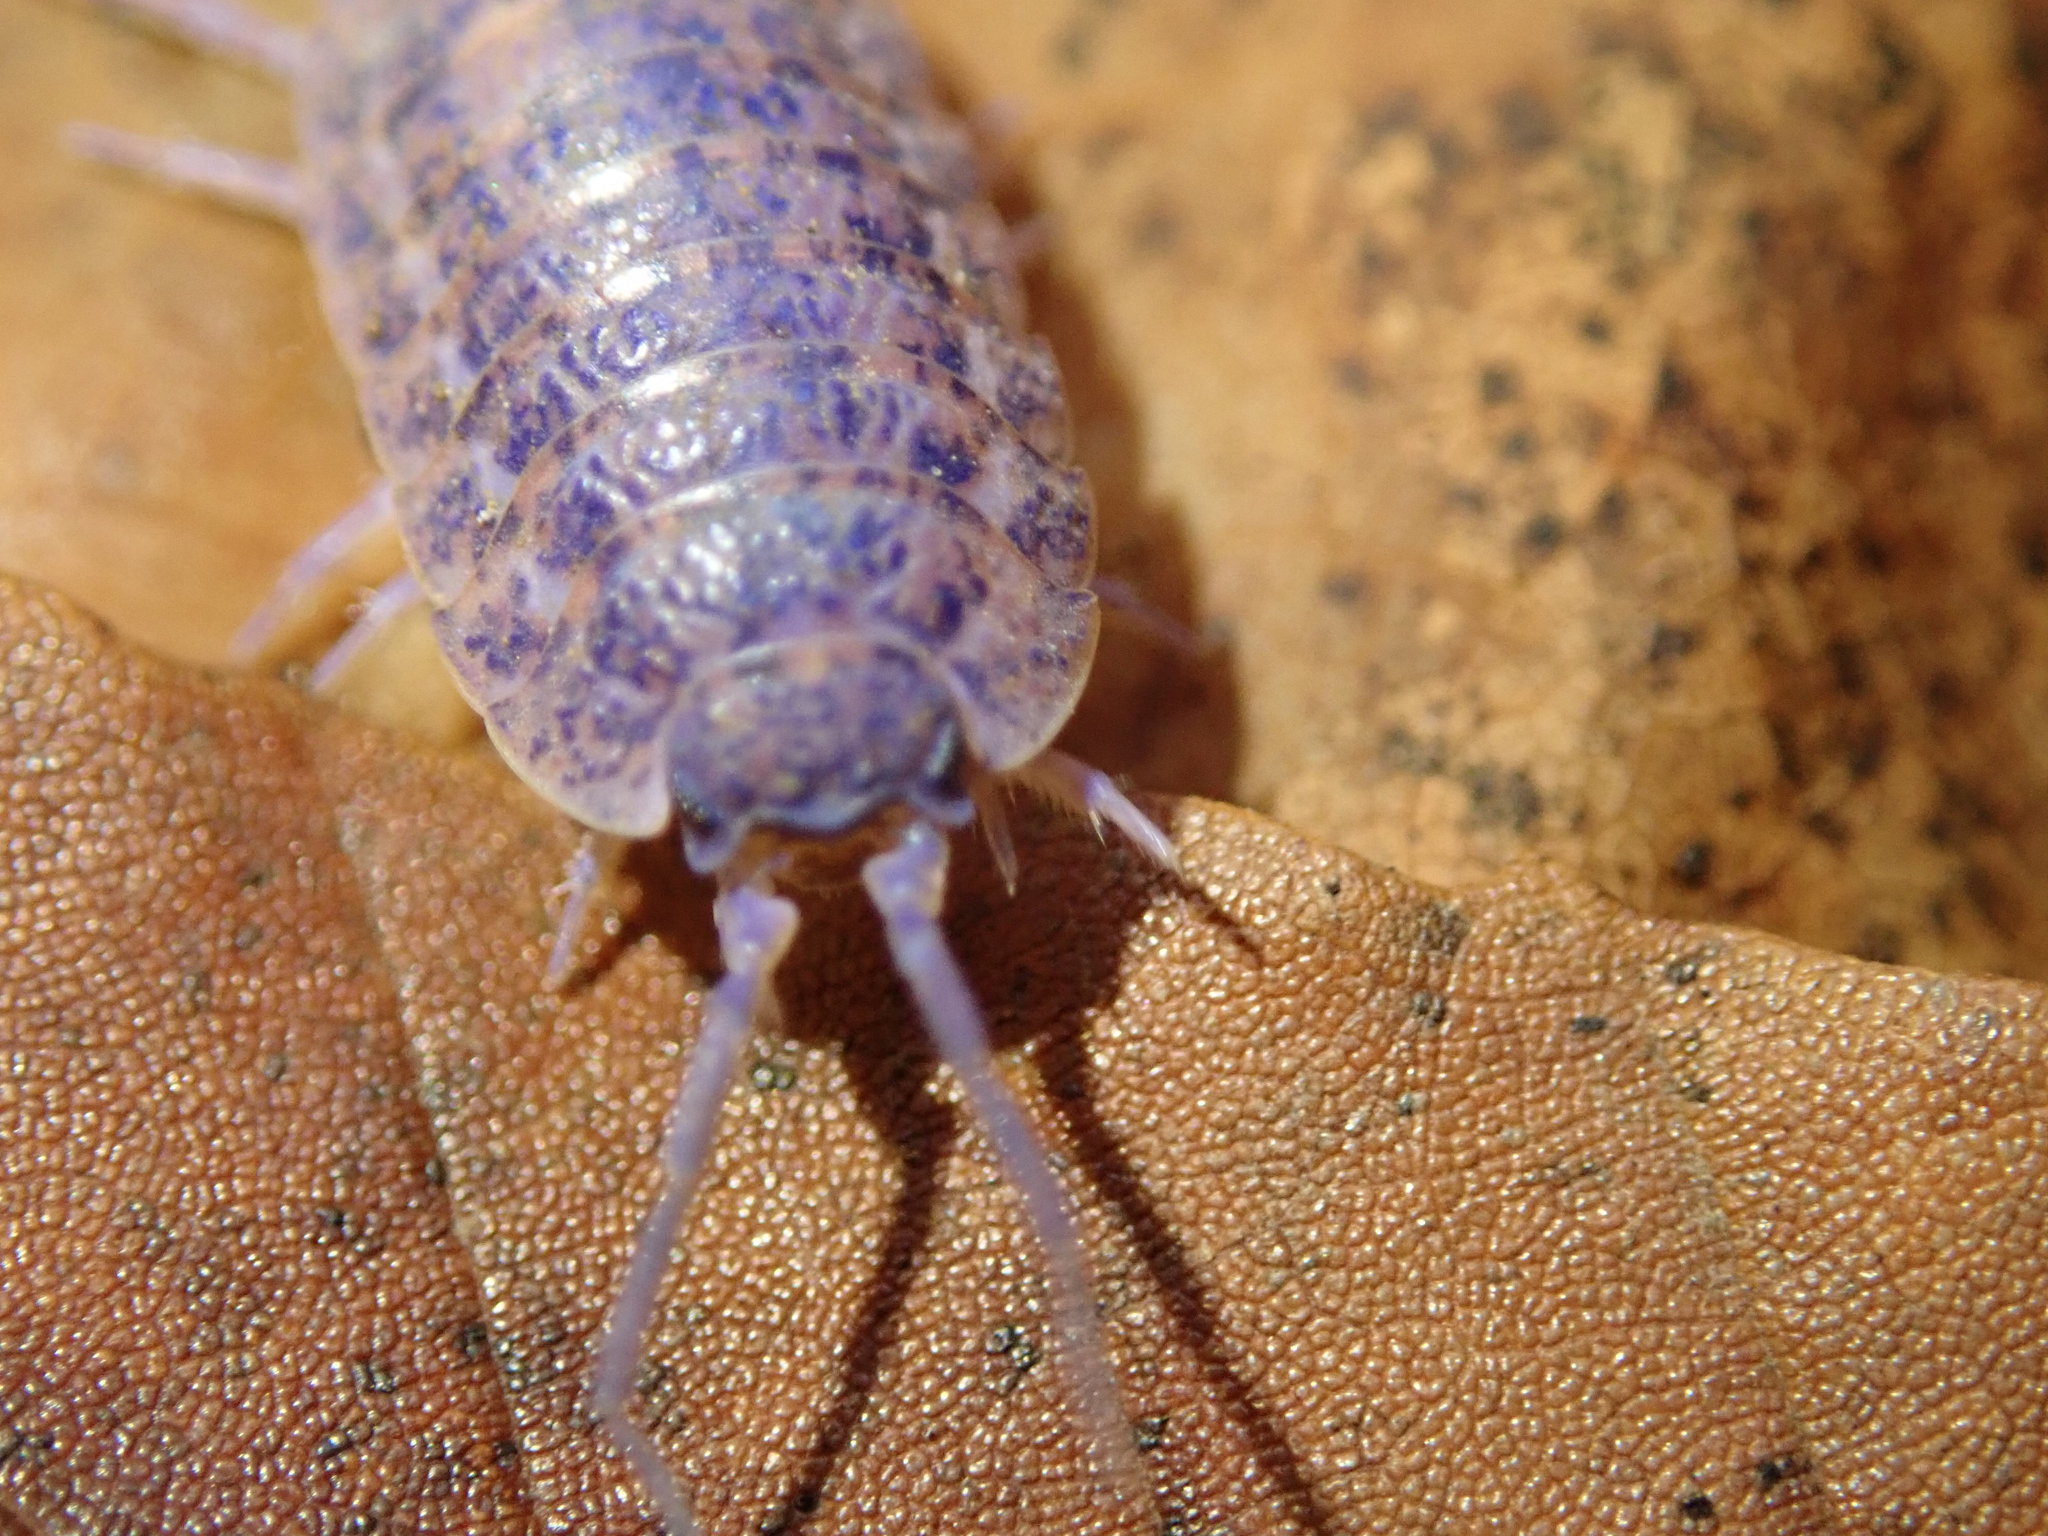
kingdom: Viruses
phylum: Nucleocytoviricota
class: Megaviricetes
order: Pimascovirales
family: Iridoviridae
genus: Iridovirus
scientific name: Iridovirus Invertebrate iridescent virus 31
